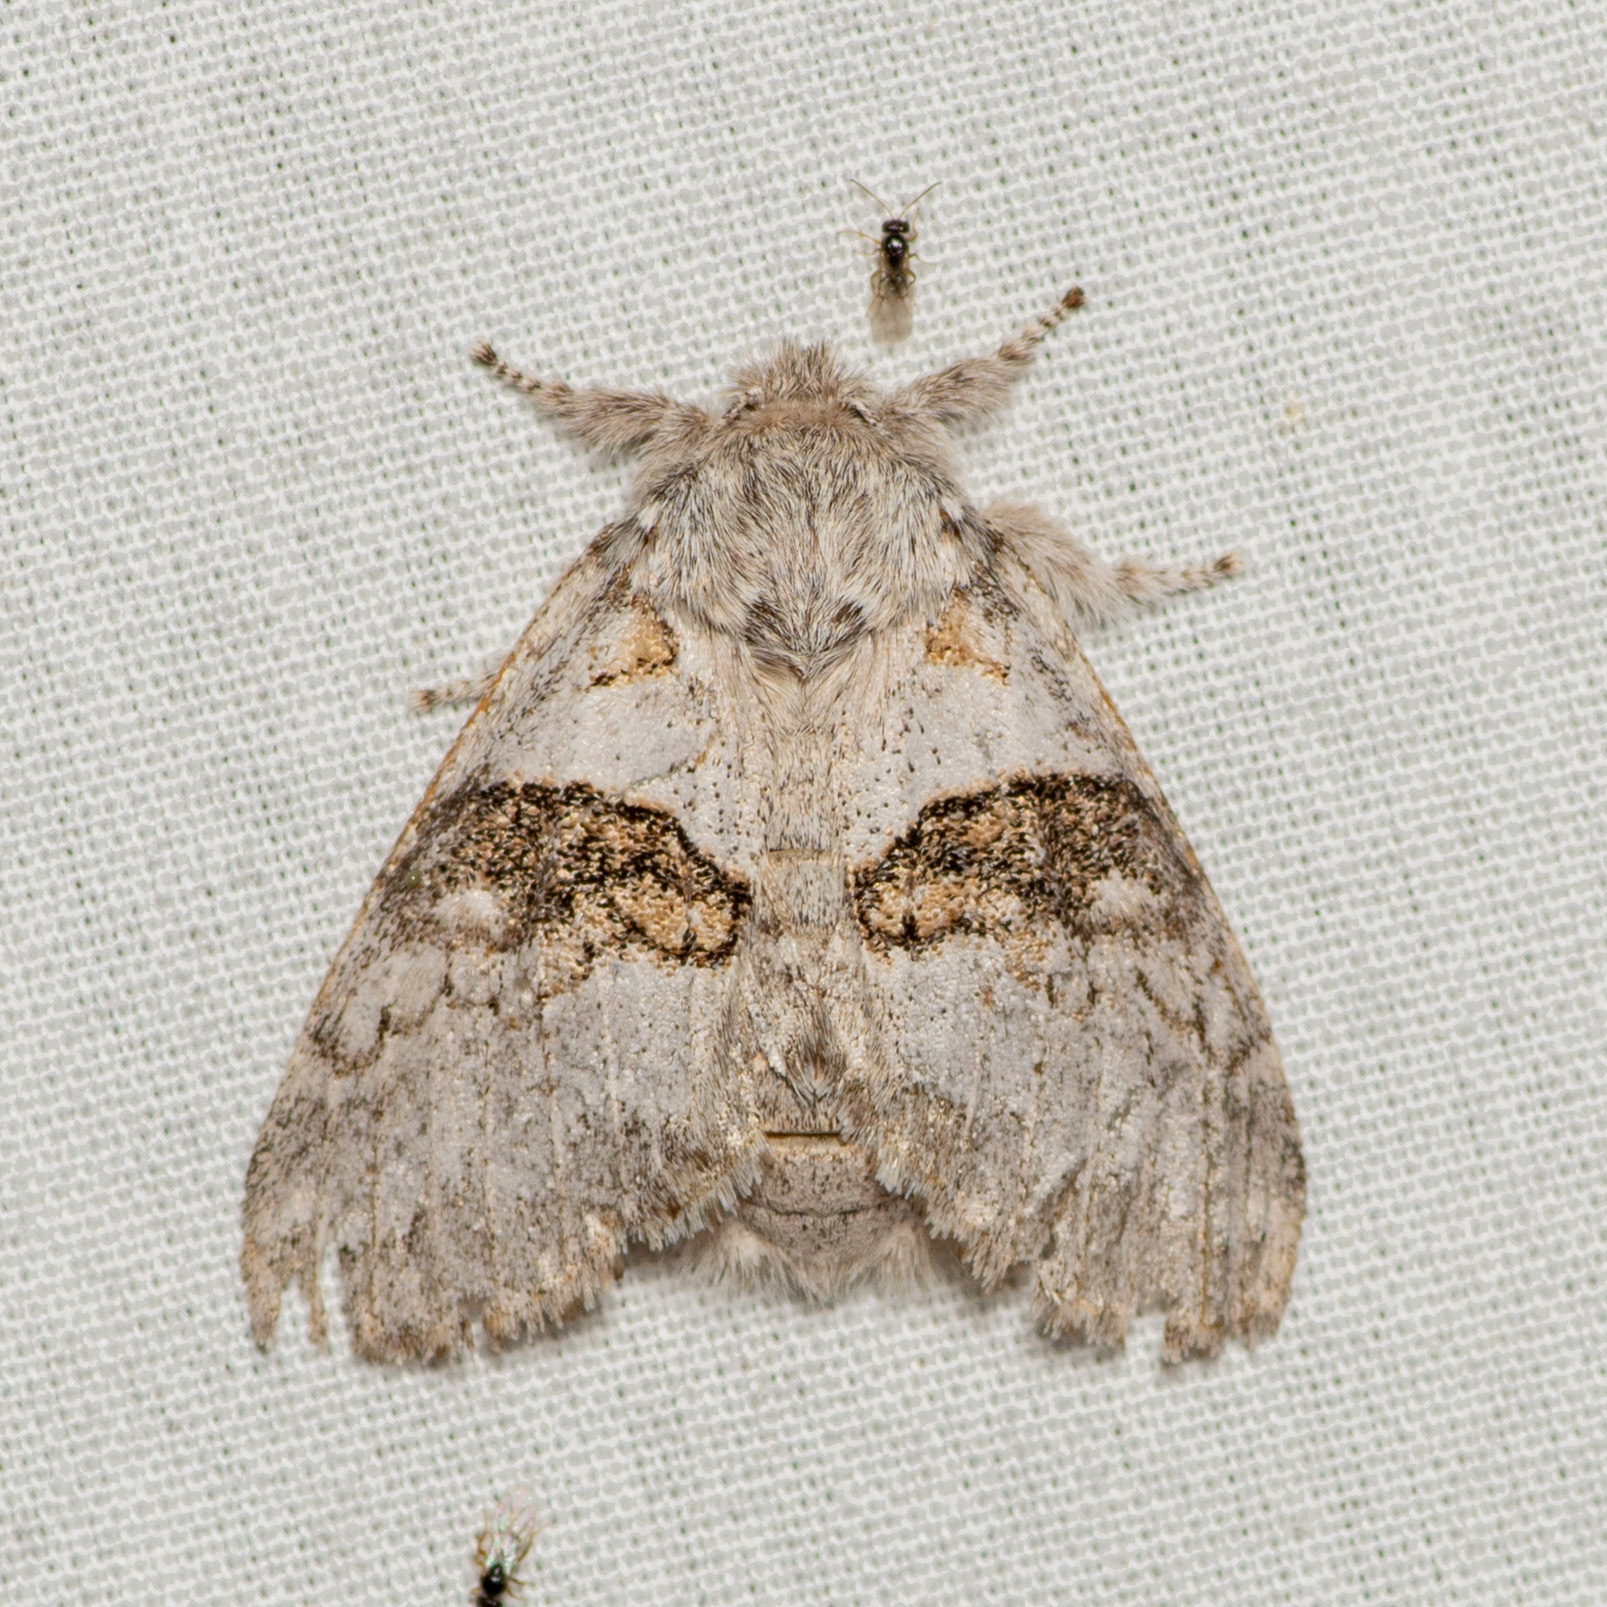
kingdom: Animalia
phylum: Arthropoda
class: Insecta
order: Lepidoptera
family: Notodontidae
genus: Gluphisia
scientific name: Gluphisia septentrionis
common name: Common gluphisia
